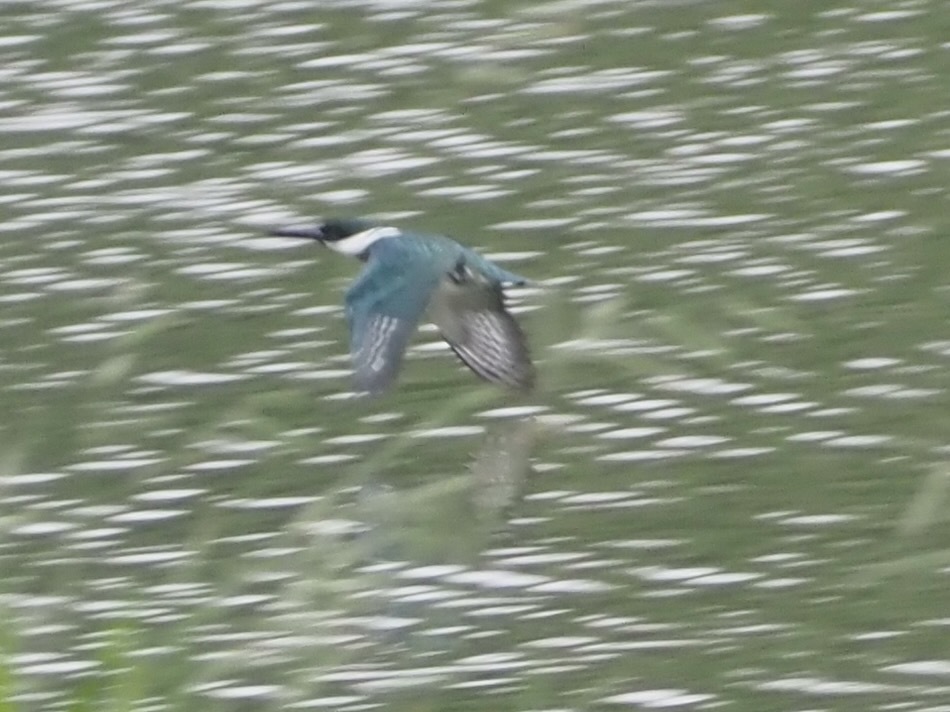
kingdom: Animalia
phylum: Chordata
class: Aves
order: Coraciiformes
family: Alcedinidae
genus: Chloroceryle
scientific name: Chloroceryle amazona
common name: Amazon kingfisher
